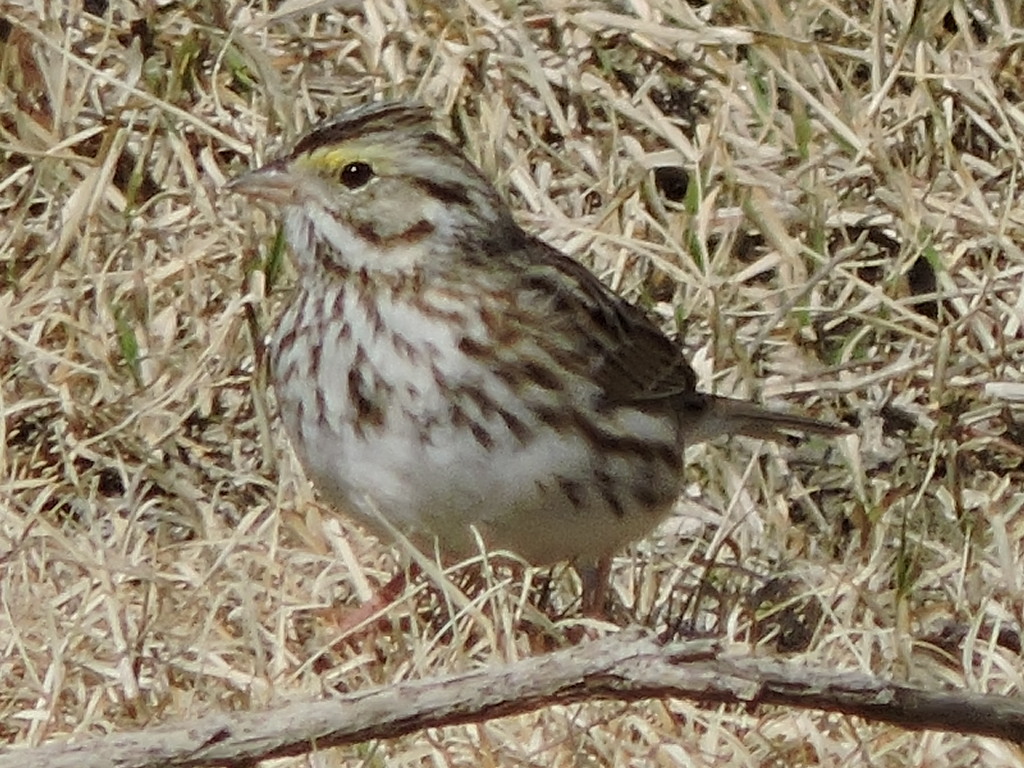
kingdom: Animalia
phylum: Chordata
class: Aves
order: Passeriformes
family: Passerellidae
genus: Passerculus
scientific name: Passerculus sandwichensis
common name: Savannah sparrow
